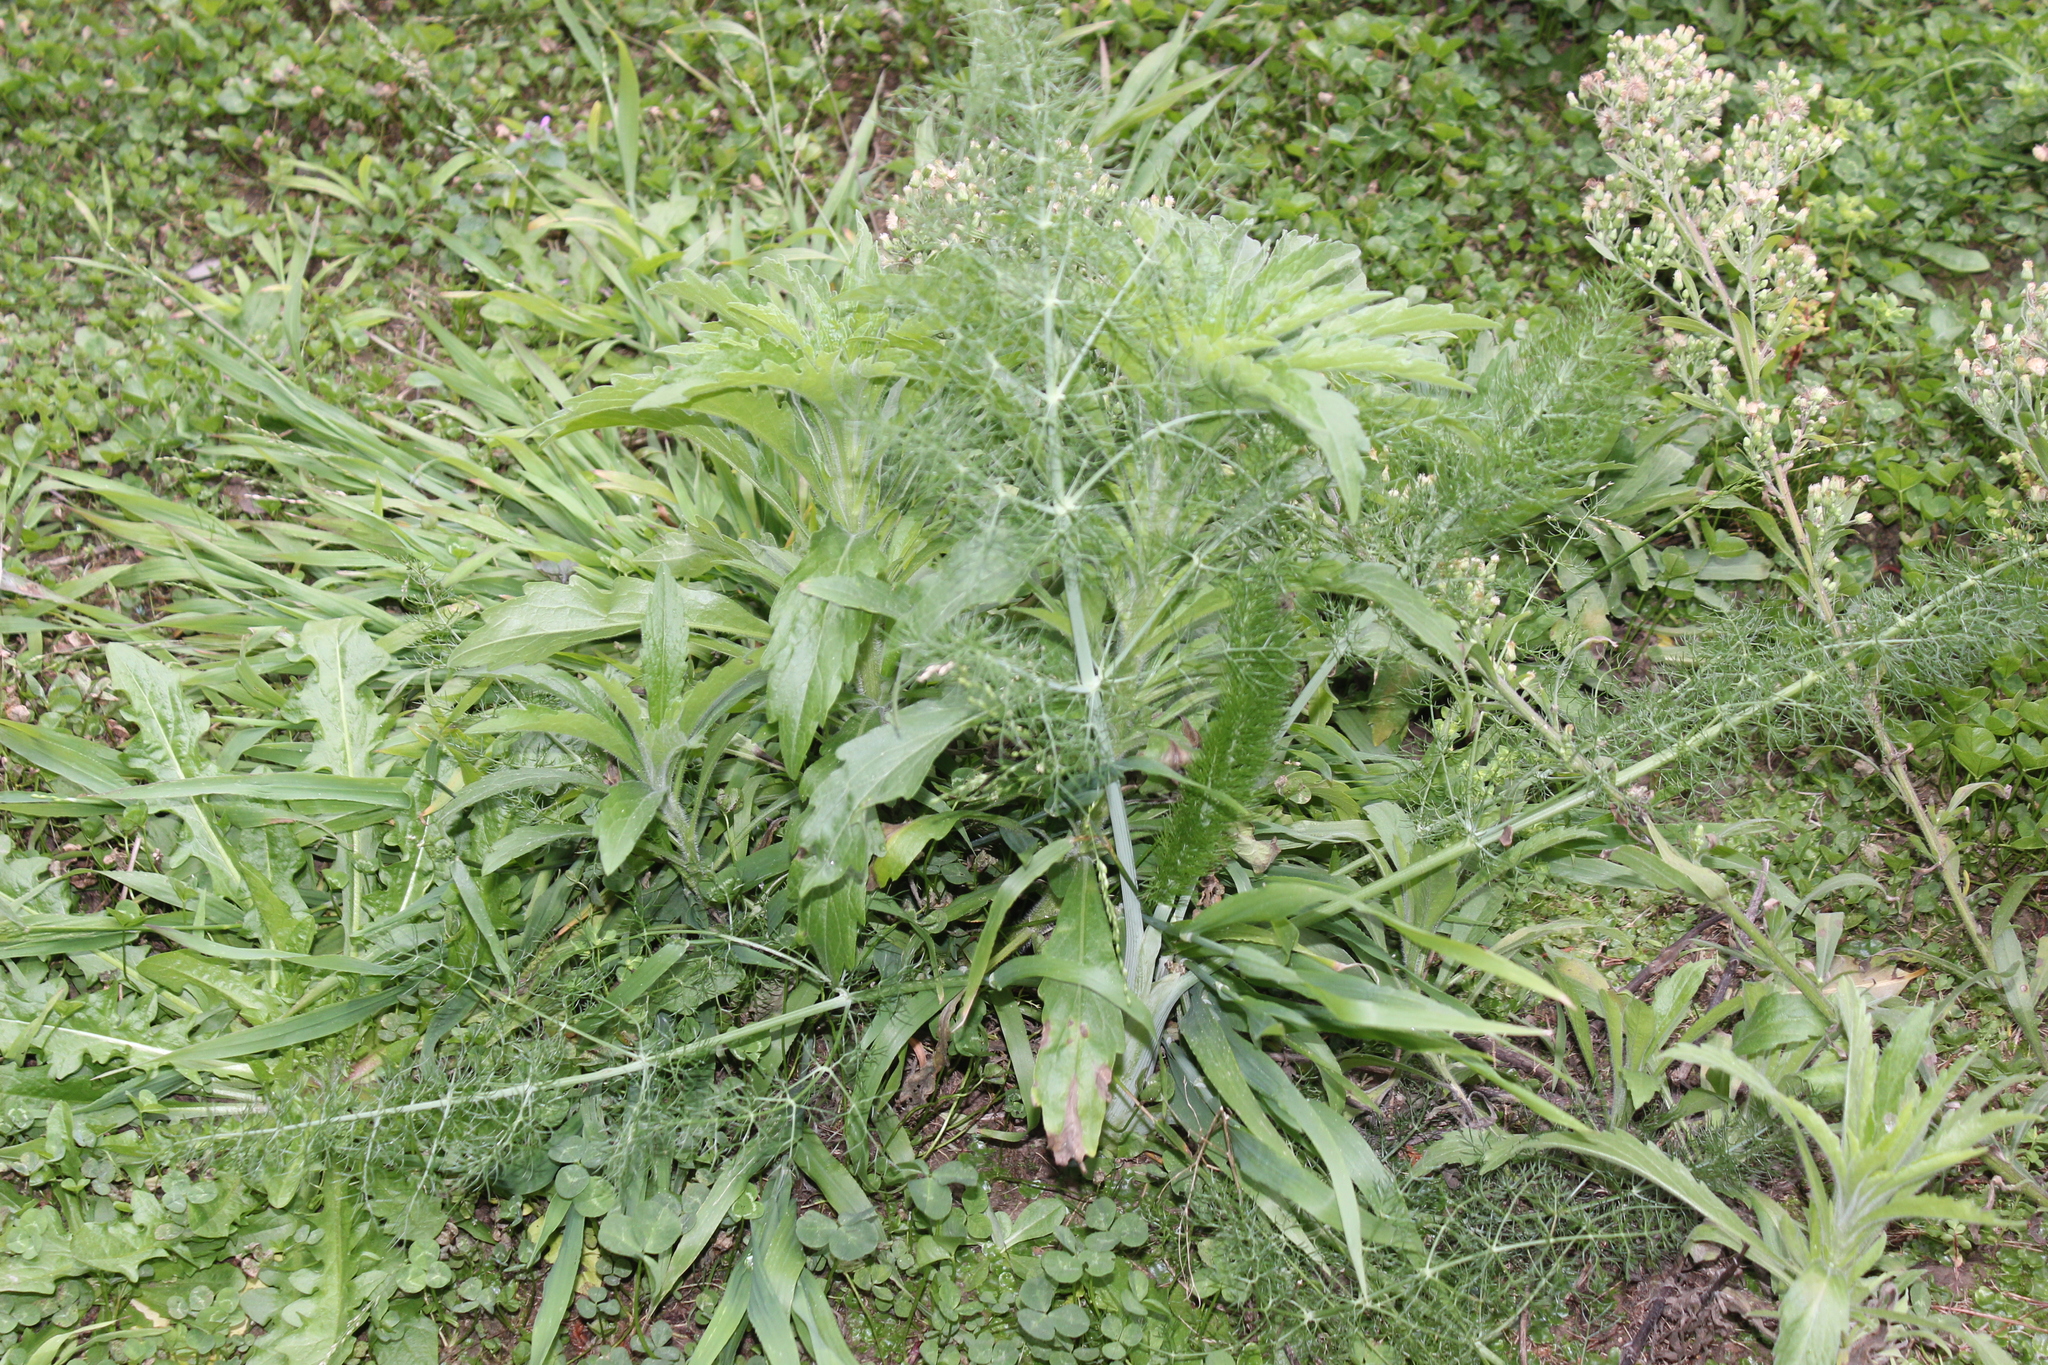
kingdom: Plantae
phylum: Tracheophyta
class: Magnoliopsida
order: Apiales
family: Apiaceae
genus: Foeniculum
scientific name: Foeniculum vulgare
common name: Fennel
